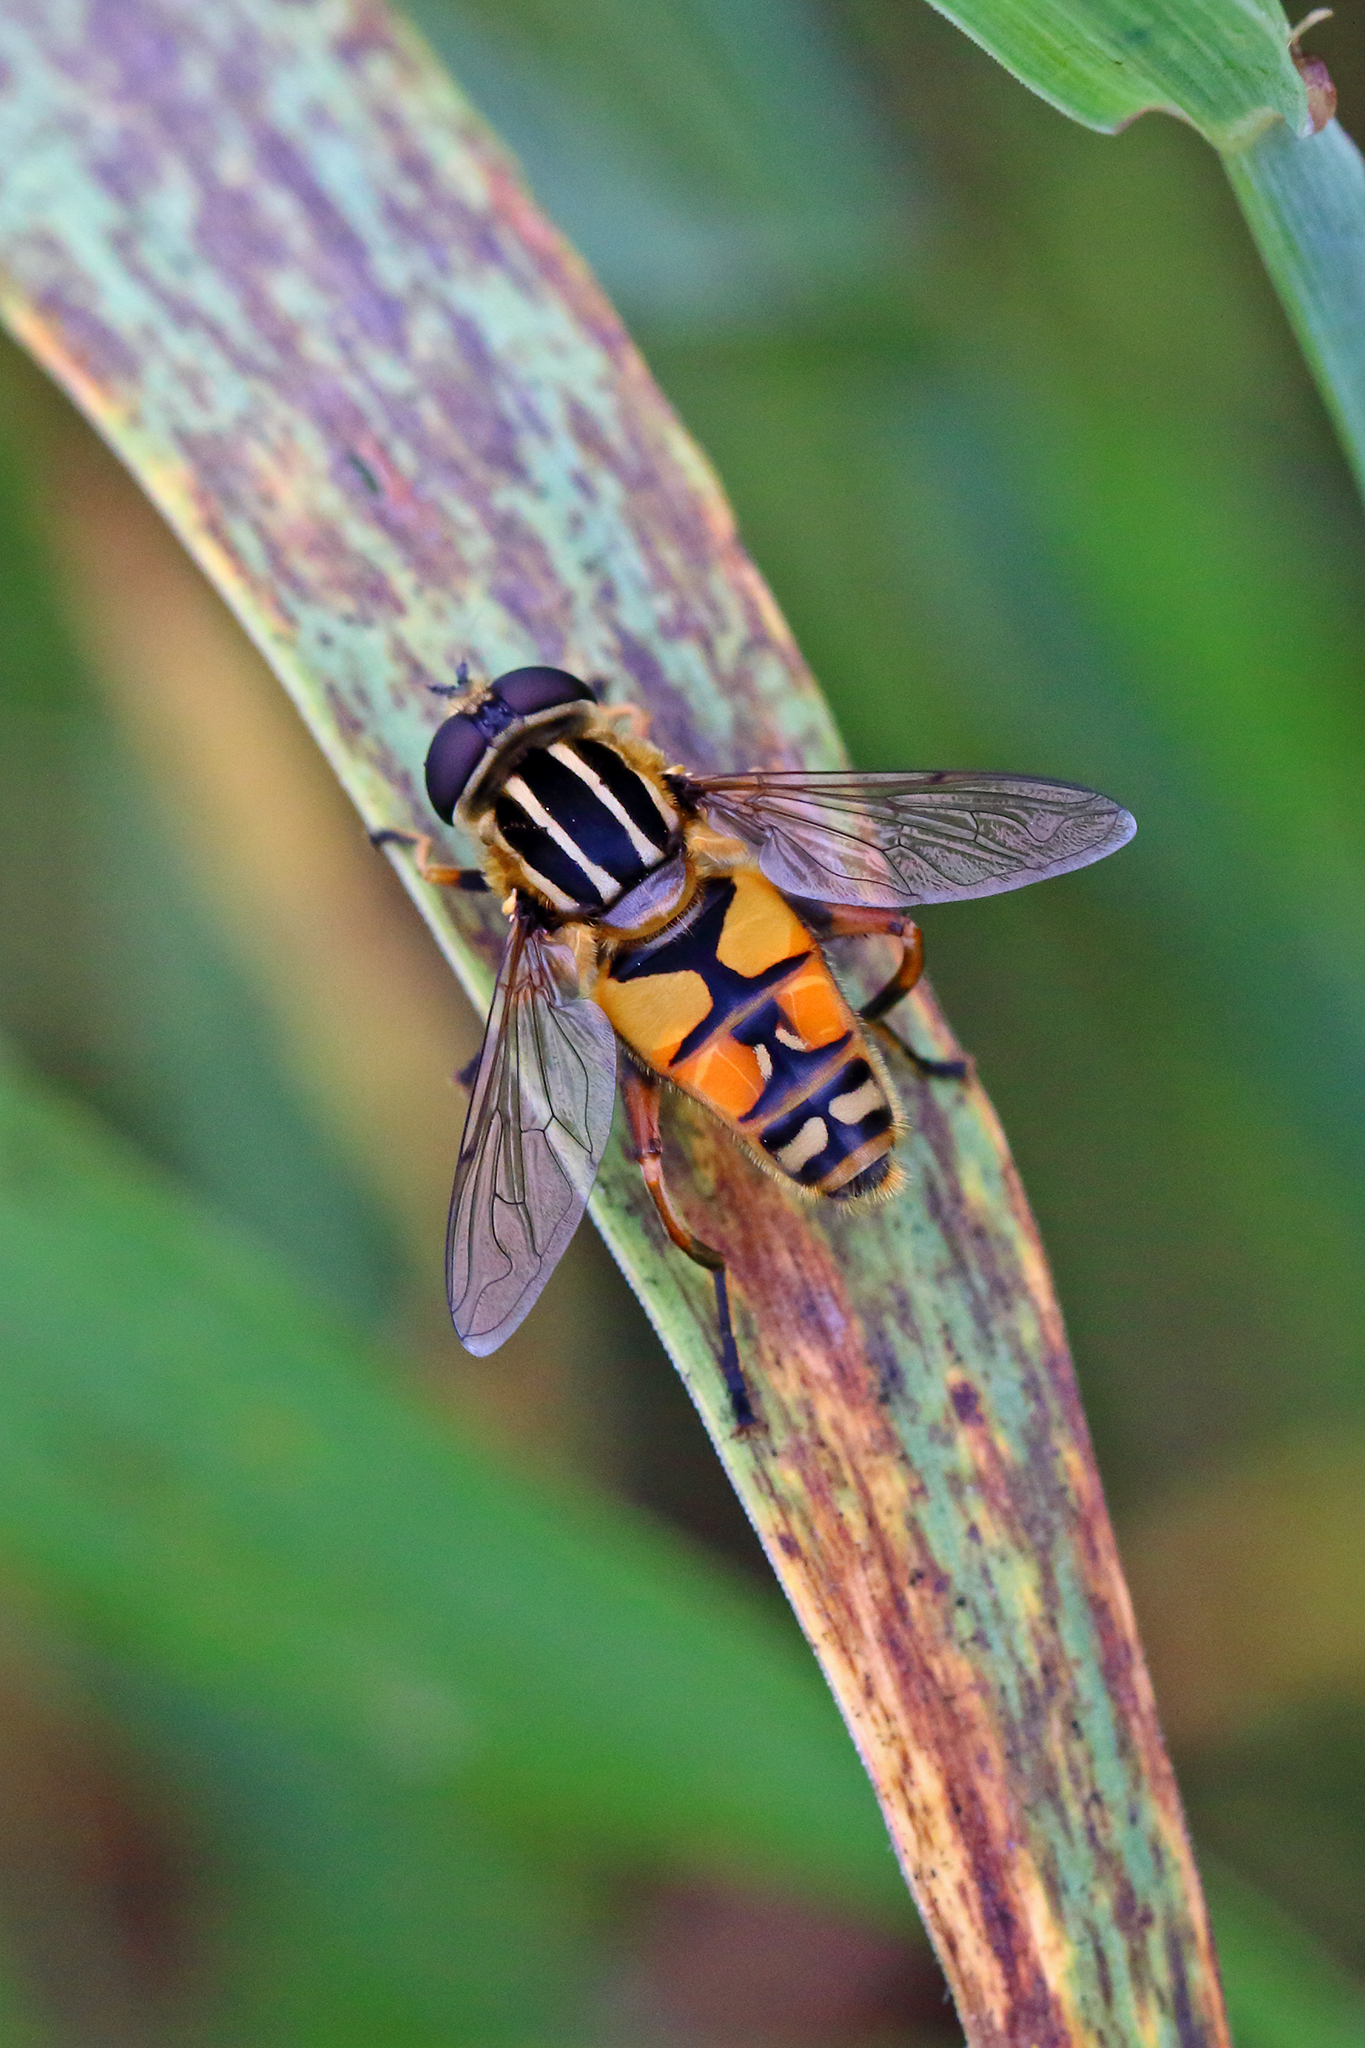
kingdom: Animalia
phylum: Arthropoda
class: Insecta
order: Diptera
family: Syrphidae
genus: Helophilus
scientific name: Helophilus pendulus
